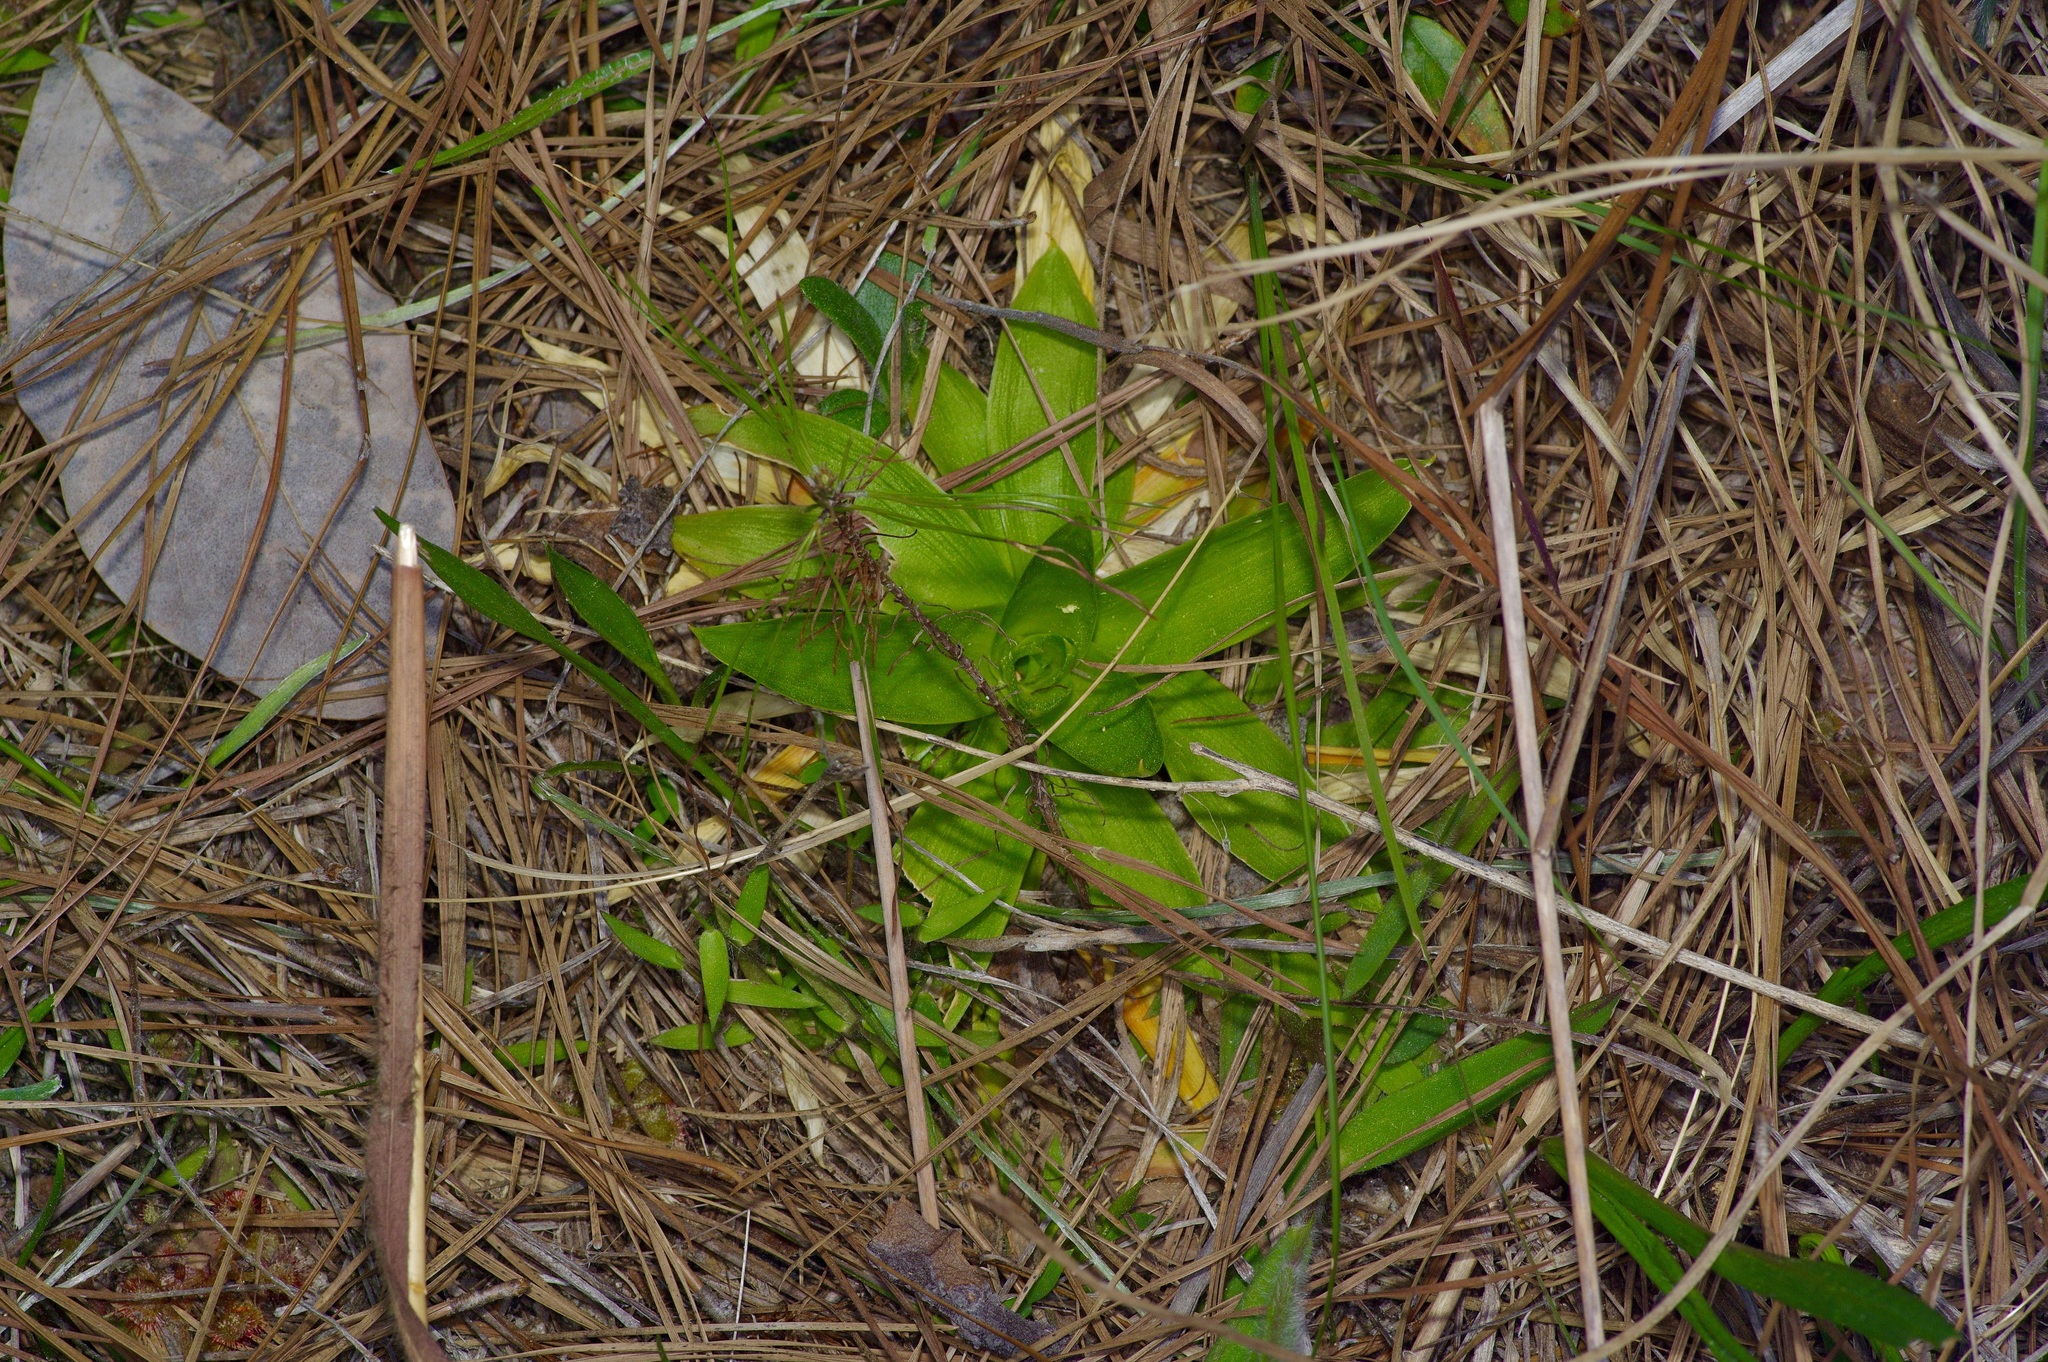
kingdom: Plantae
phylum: Tracheophyta
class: Liliopsida
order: Dioscoreales
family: Nartheciaceae
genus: Aletris
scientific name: Aletris aurea
